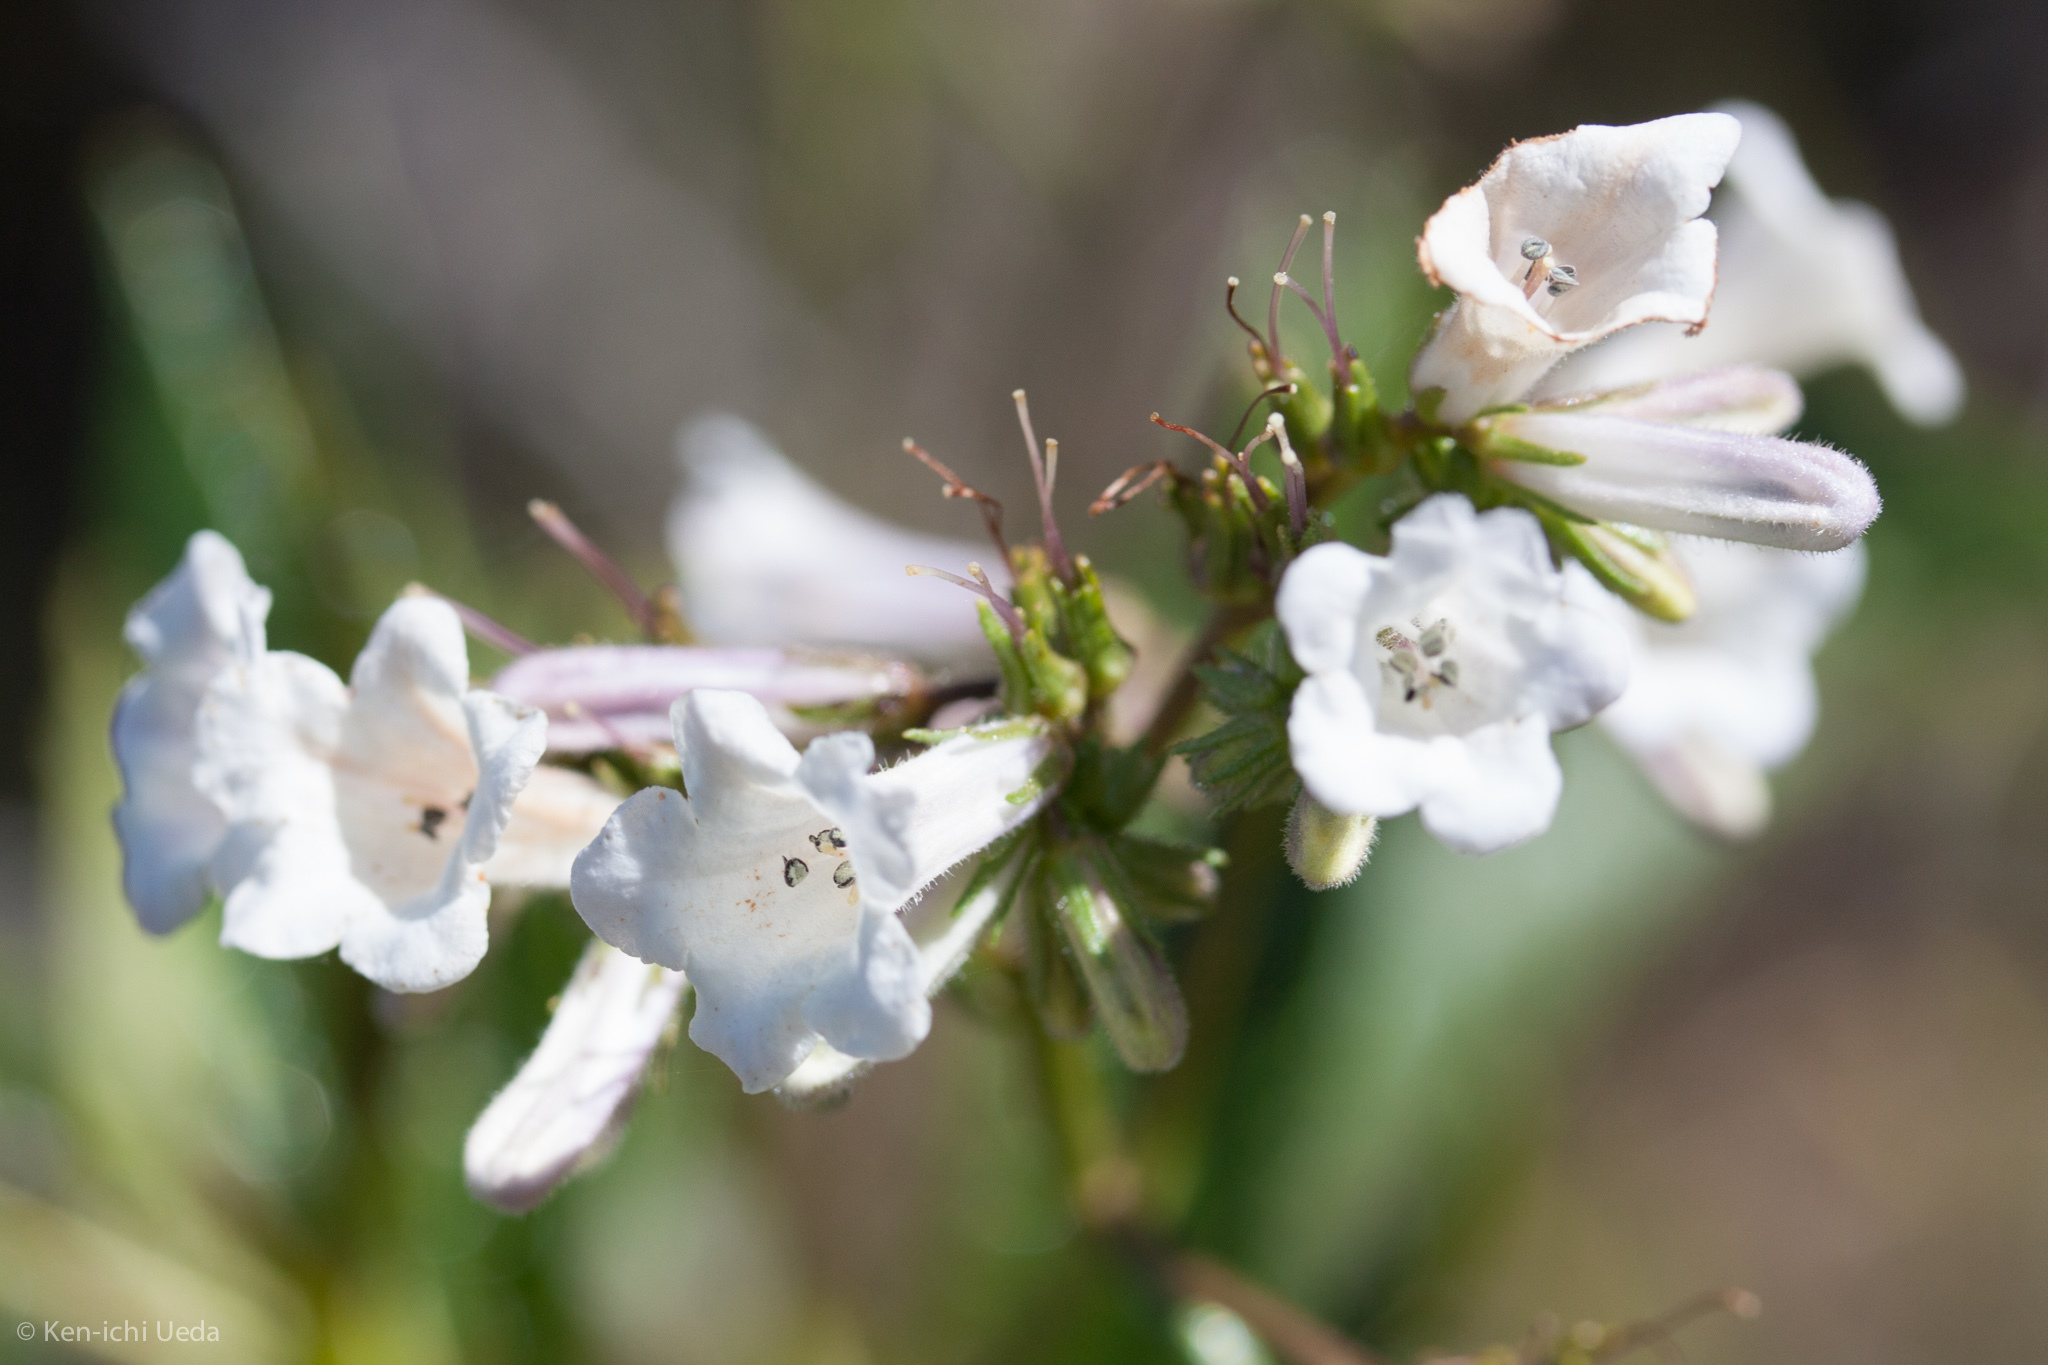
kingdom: Plantae
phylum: Tracheophyta
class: Magnoliopsida
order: Boraginales
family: Namaceae
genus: Eriodictyon
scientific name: Eriodictyon californicum
